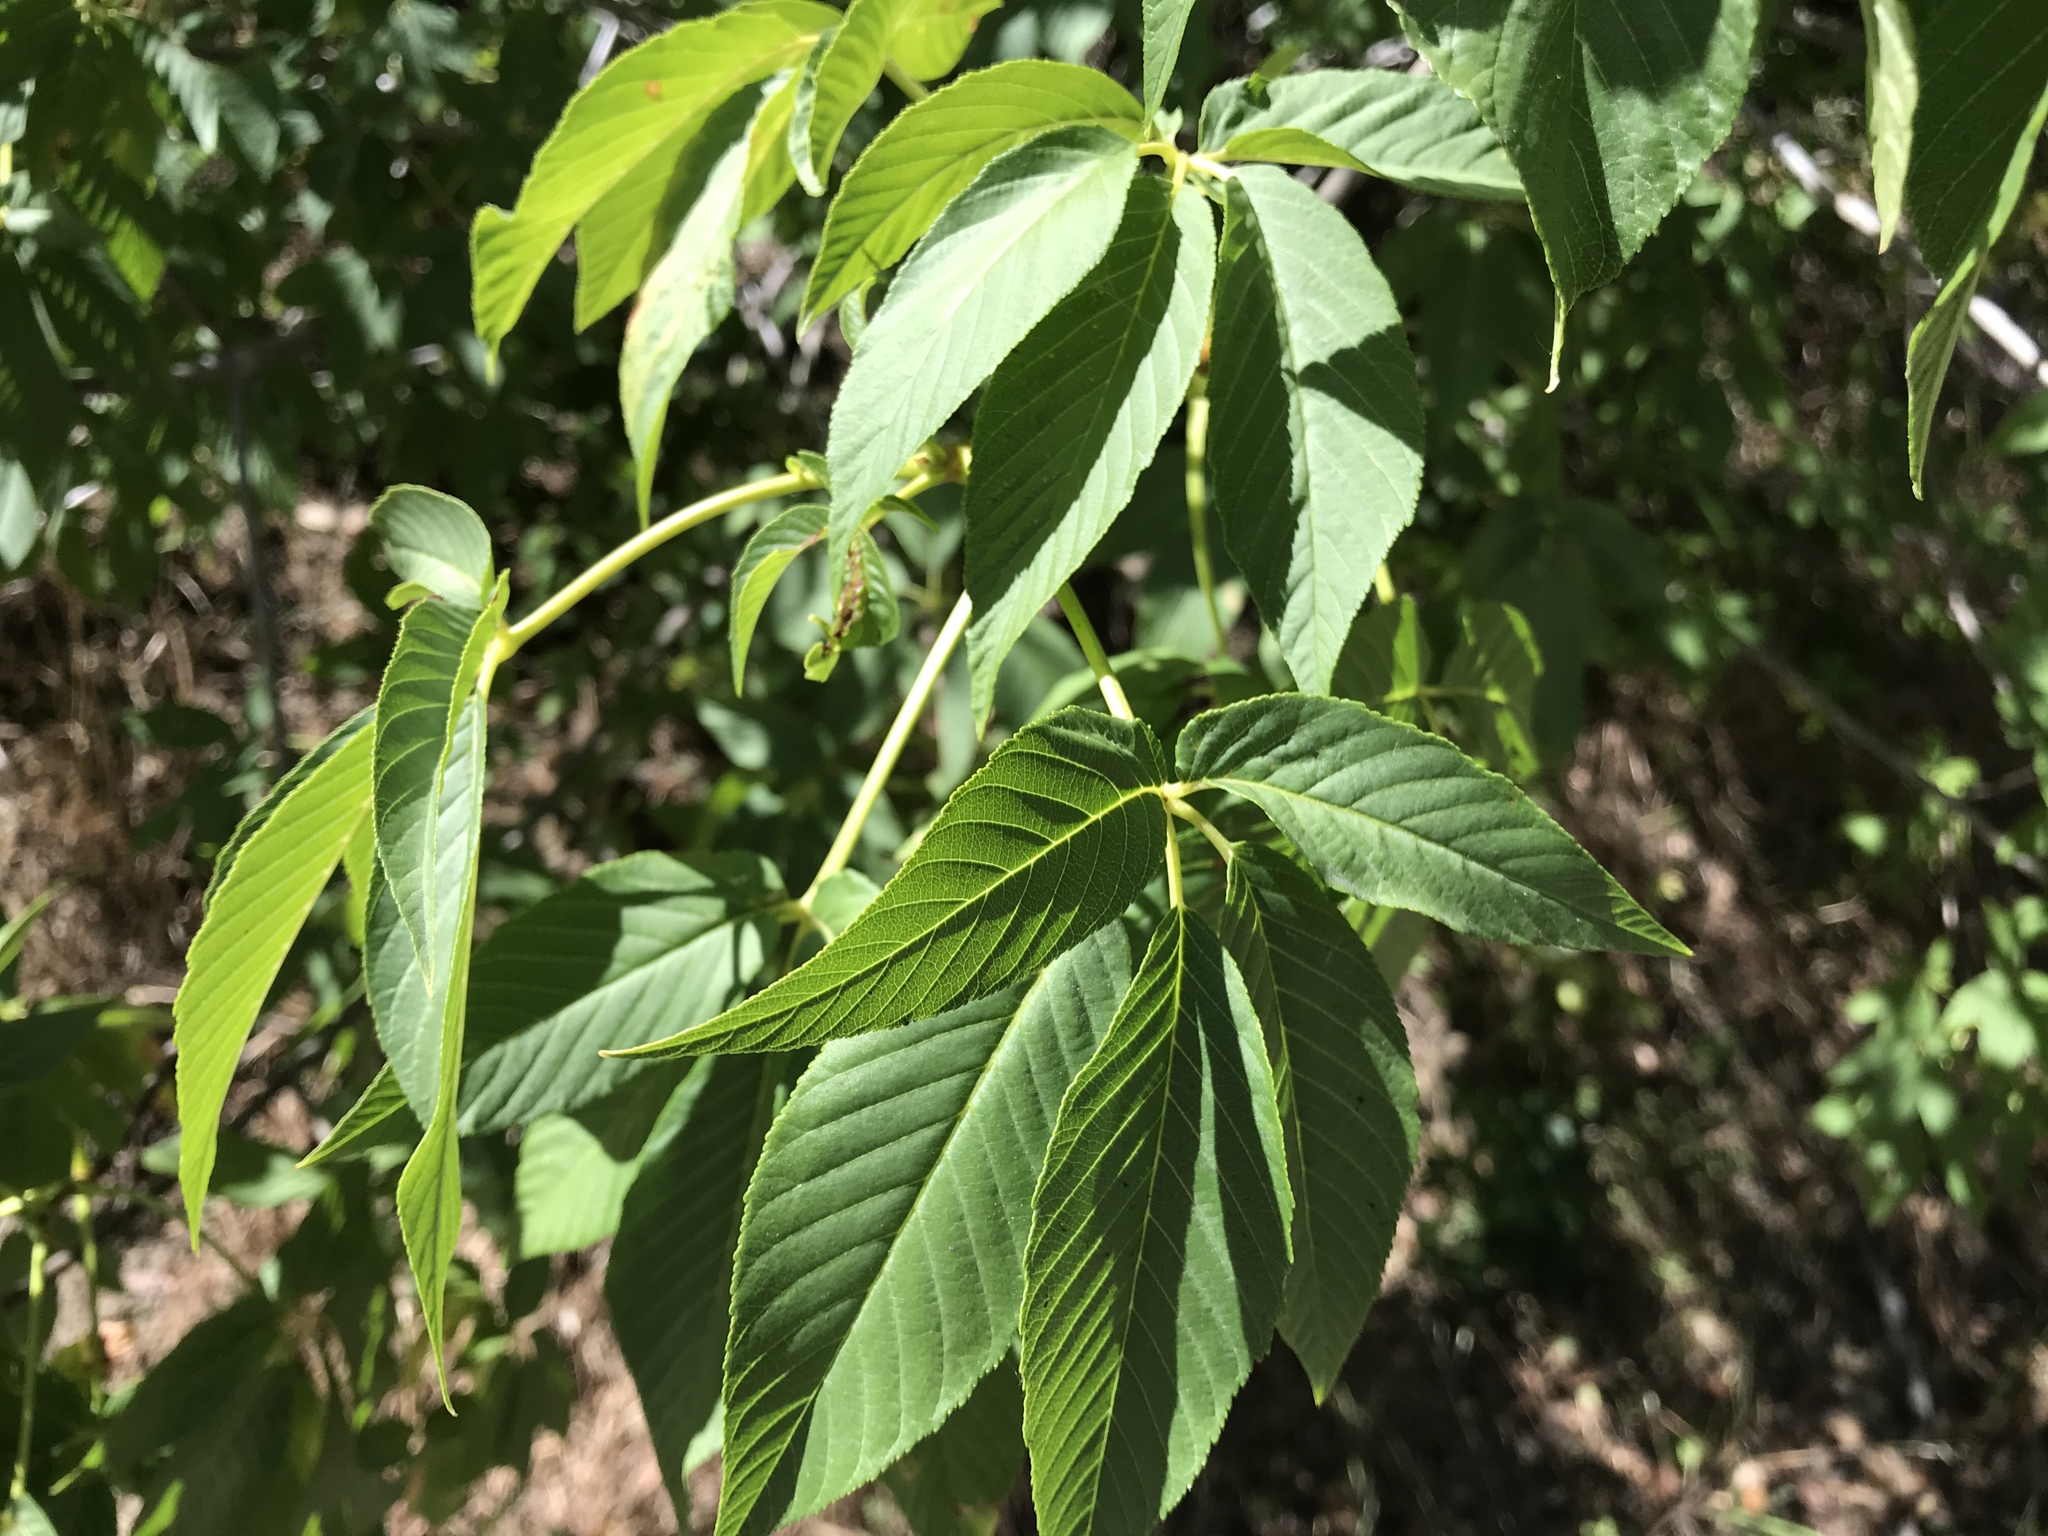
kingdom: Plantae
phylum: Tracheophyta
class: Magnoliopsida
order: Sapindales
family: Sapindaceae
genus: Aesculus
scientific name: Aesculus californica
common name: California buckeye
